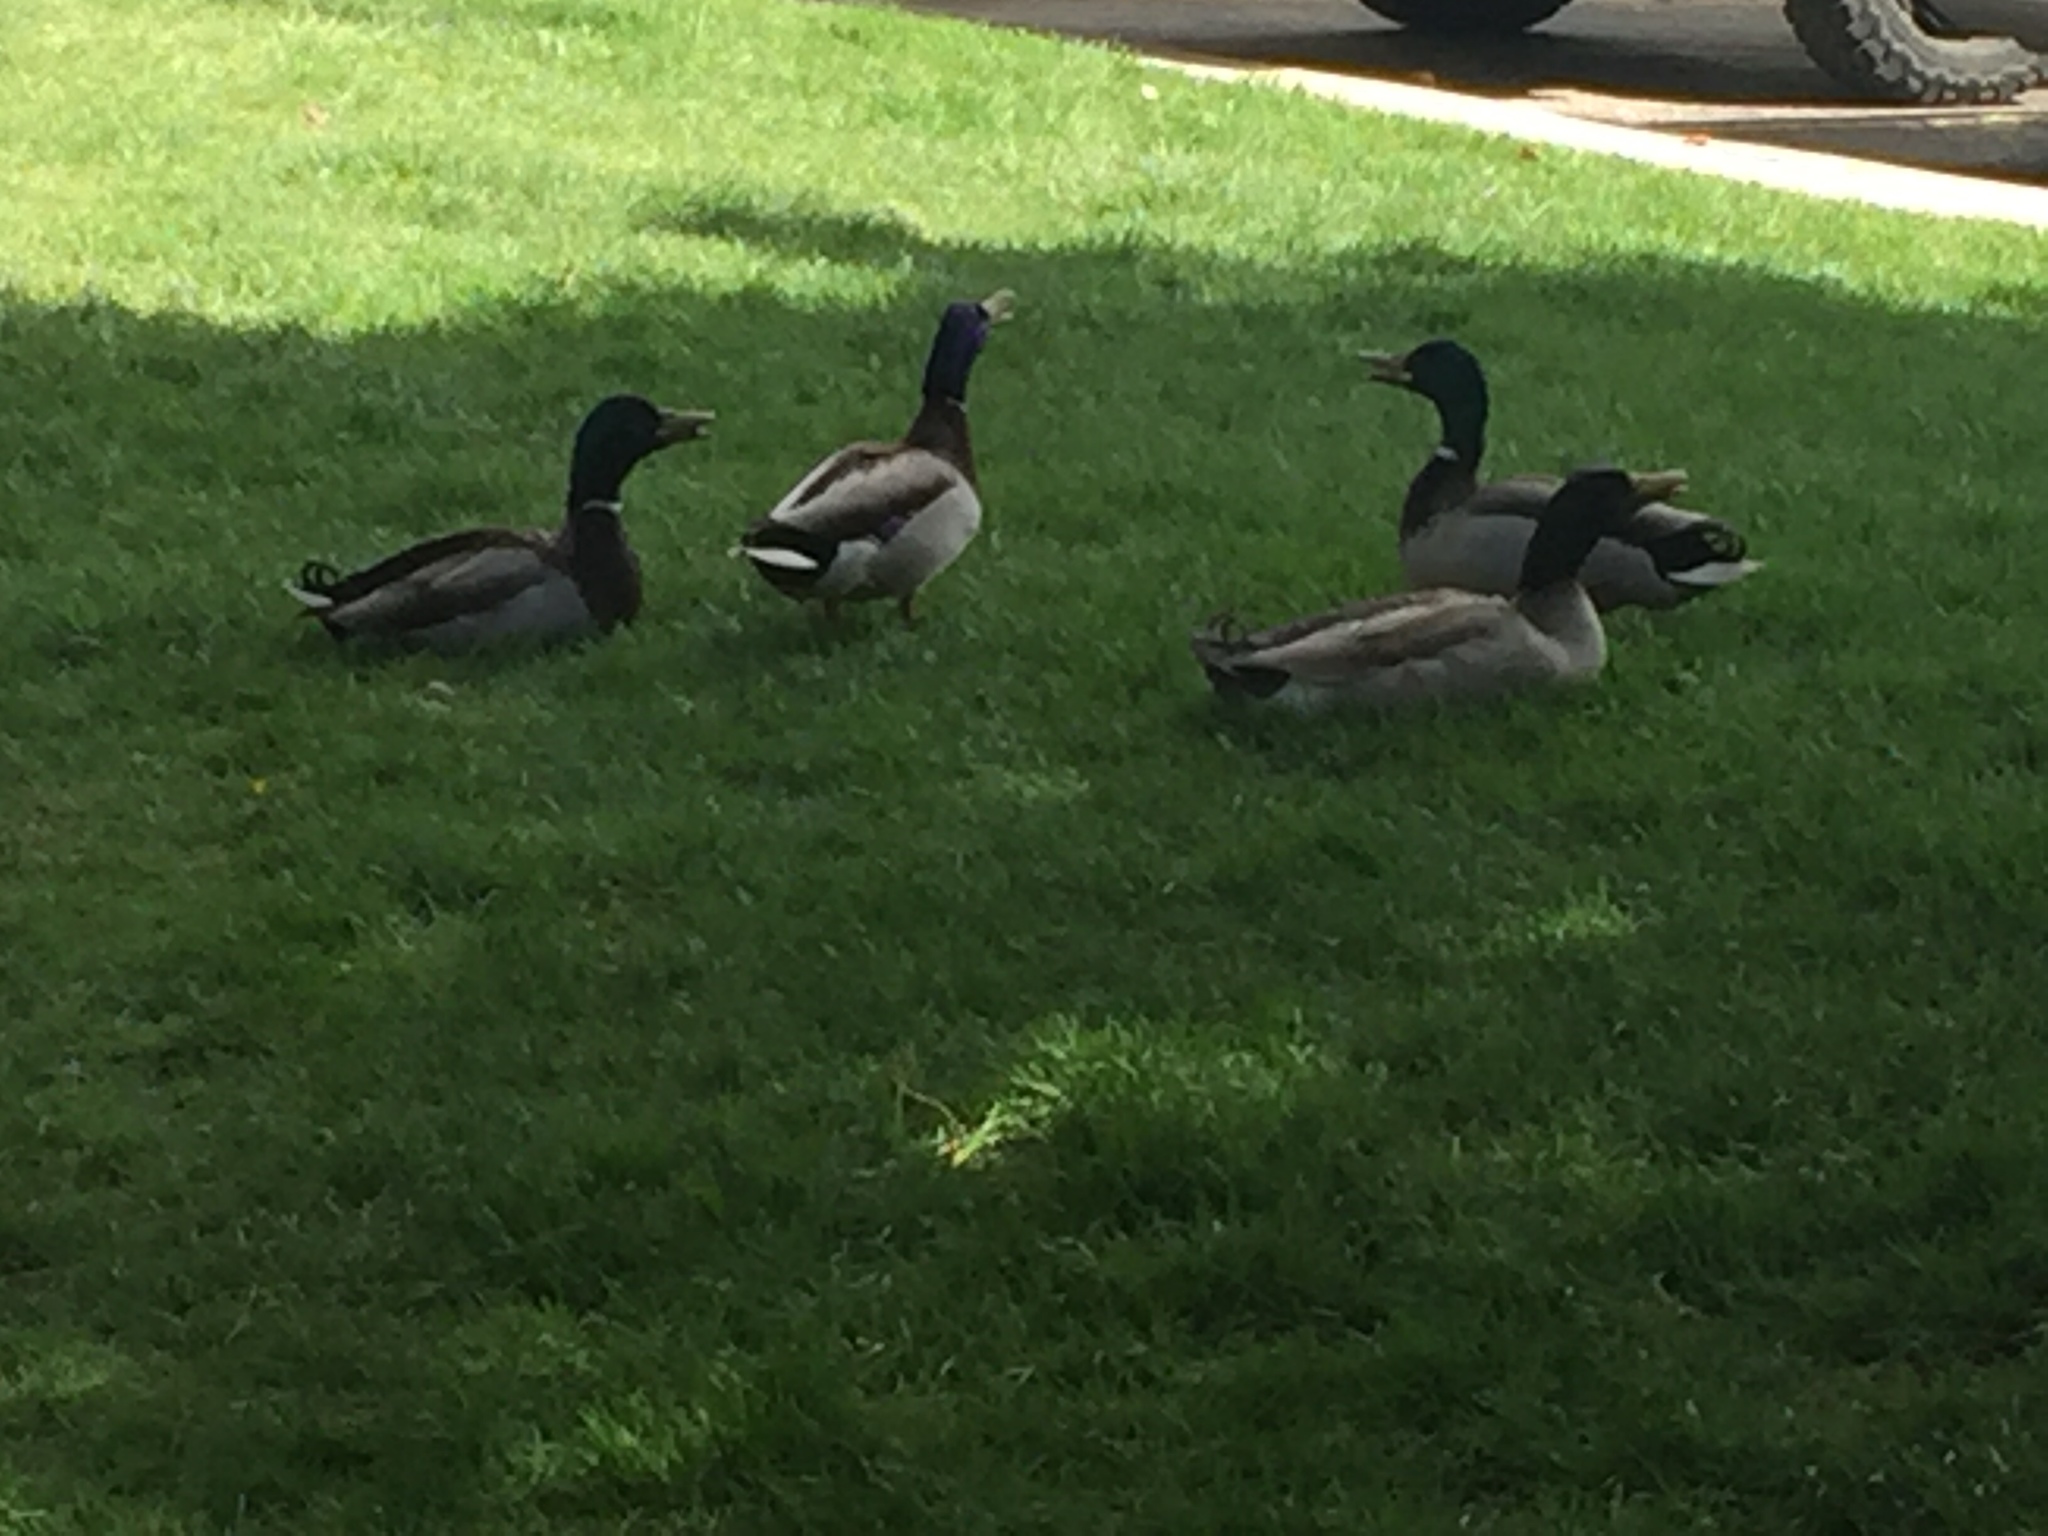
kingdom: Animalia
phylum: Chordata
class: Aves
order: Anseriformes
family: Anatidae
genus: Anas
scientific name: Anas platyrhynchos
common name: Mallard
